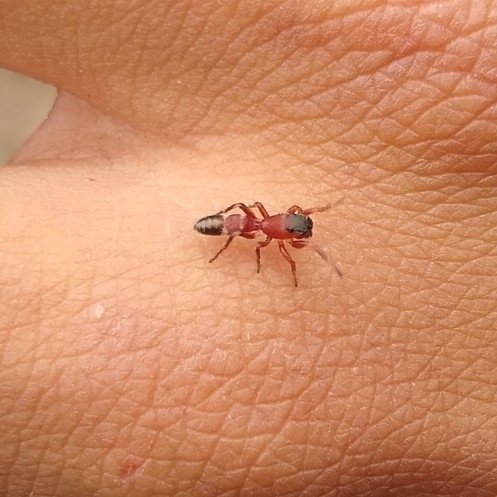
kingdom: Animalia
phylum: Arthropoda
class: Arachnida
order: Araneae
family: Salticidae
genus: Parafluda
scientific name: Parafluda banksi
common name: Jumping spiders
